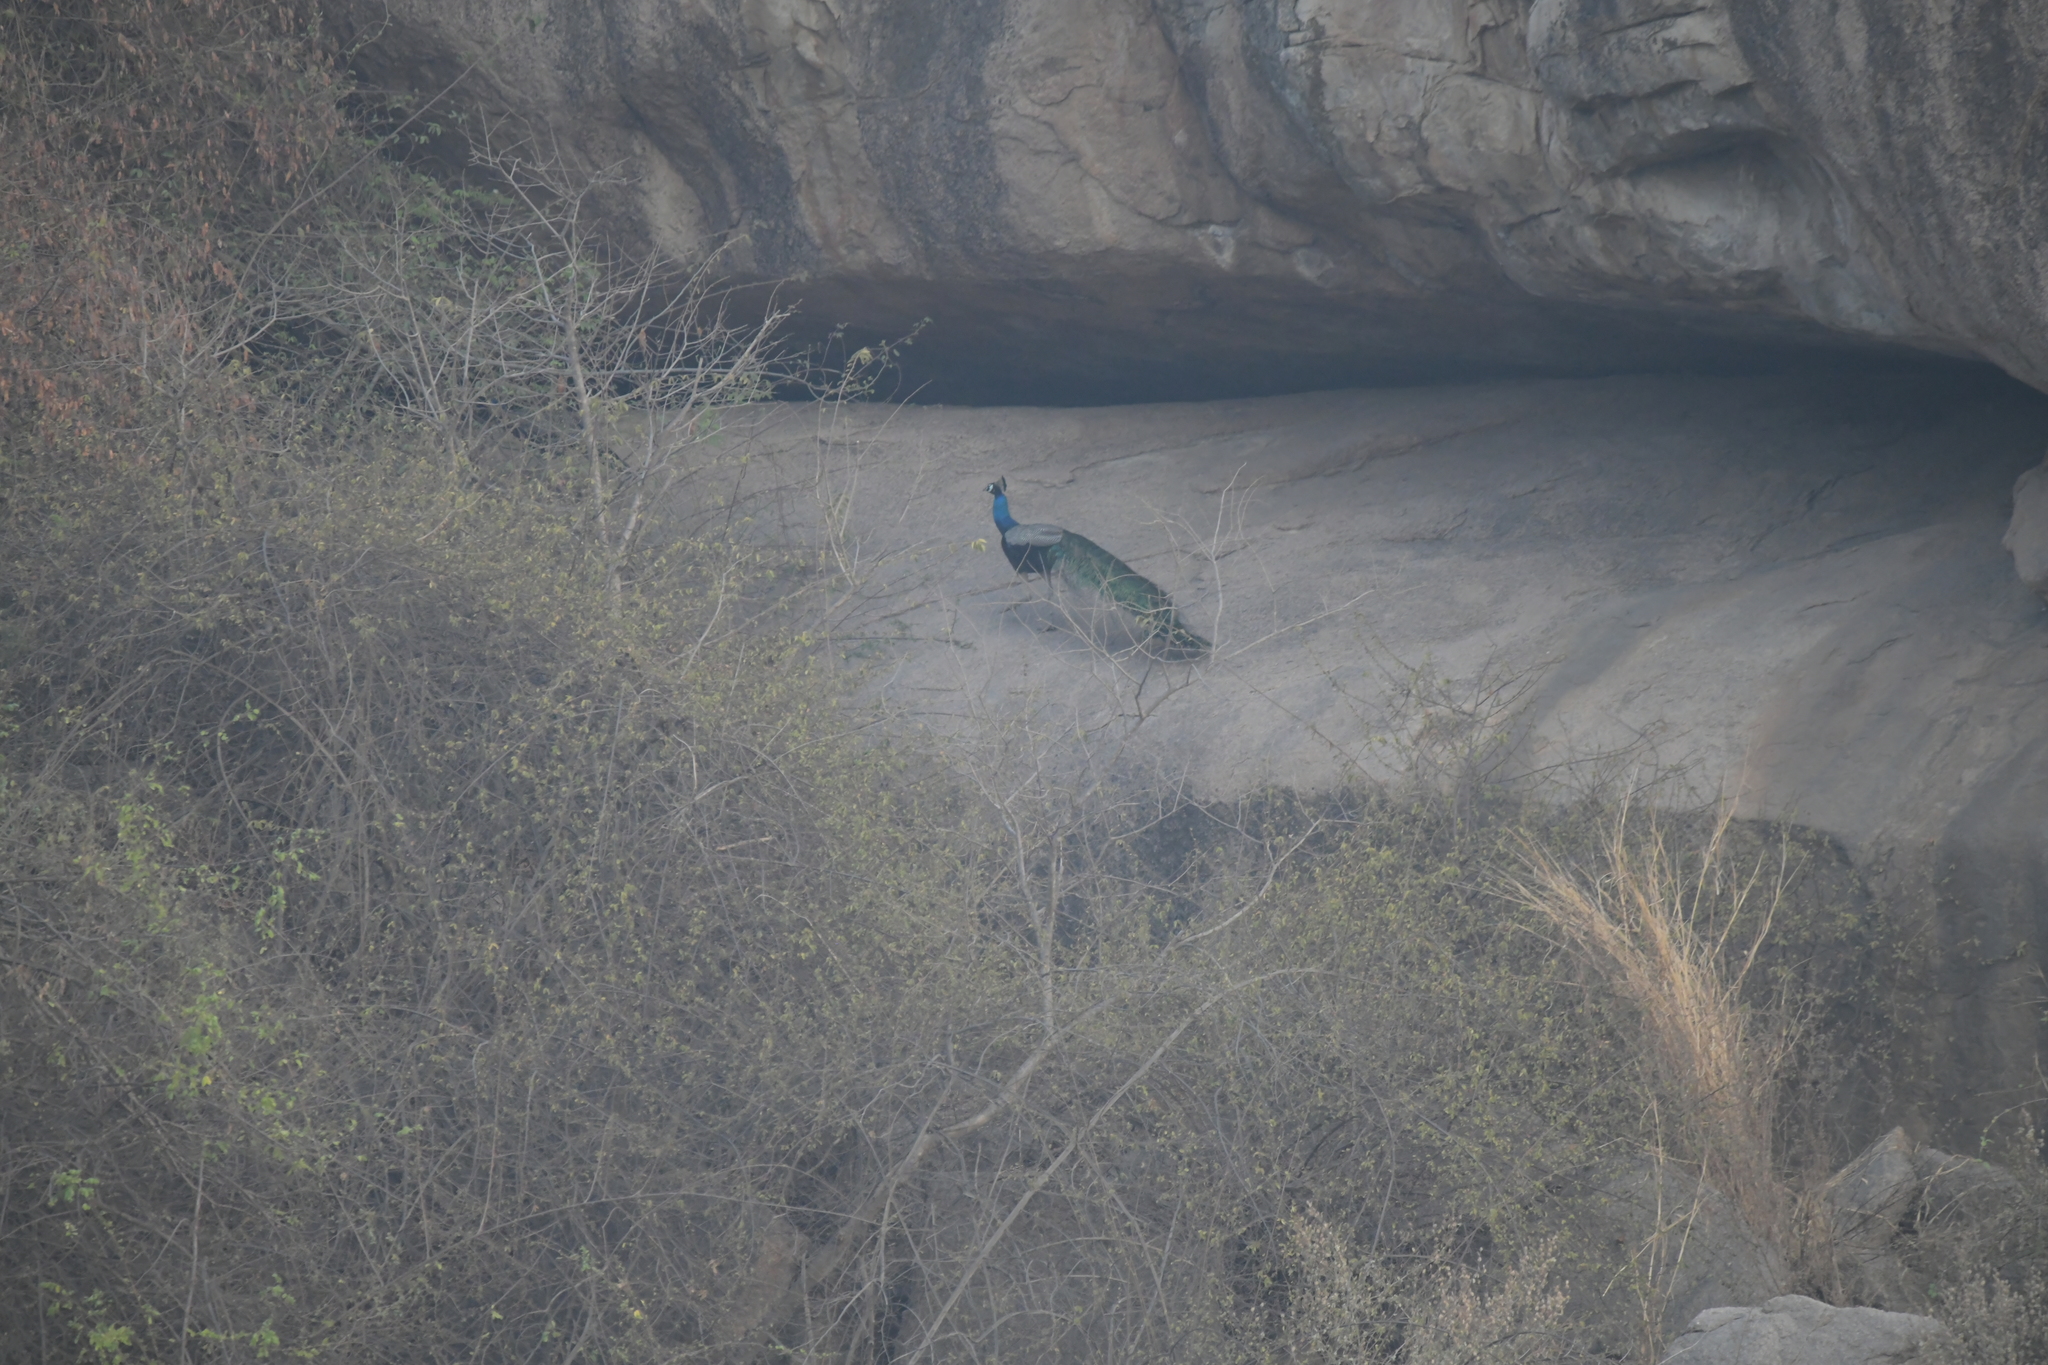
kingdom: Animalia
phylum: Chordata
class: Aves
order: Galliformes
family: Phasianidae
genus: Pavo
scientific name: Pavo cristatus
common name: Indian peafowl
